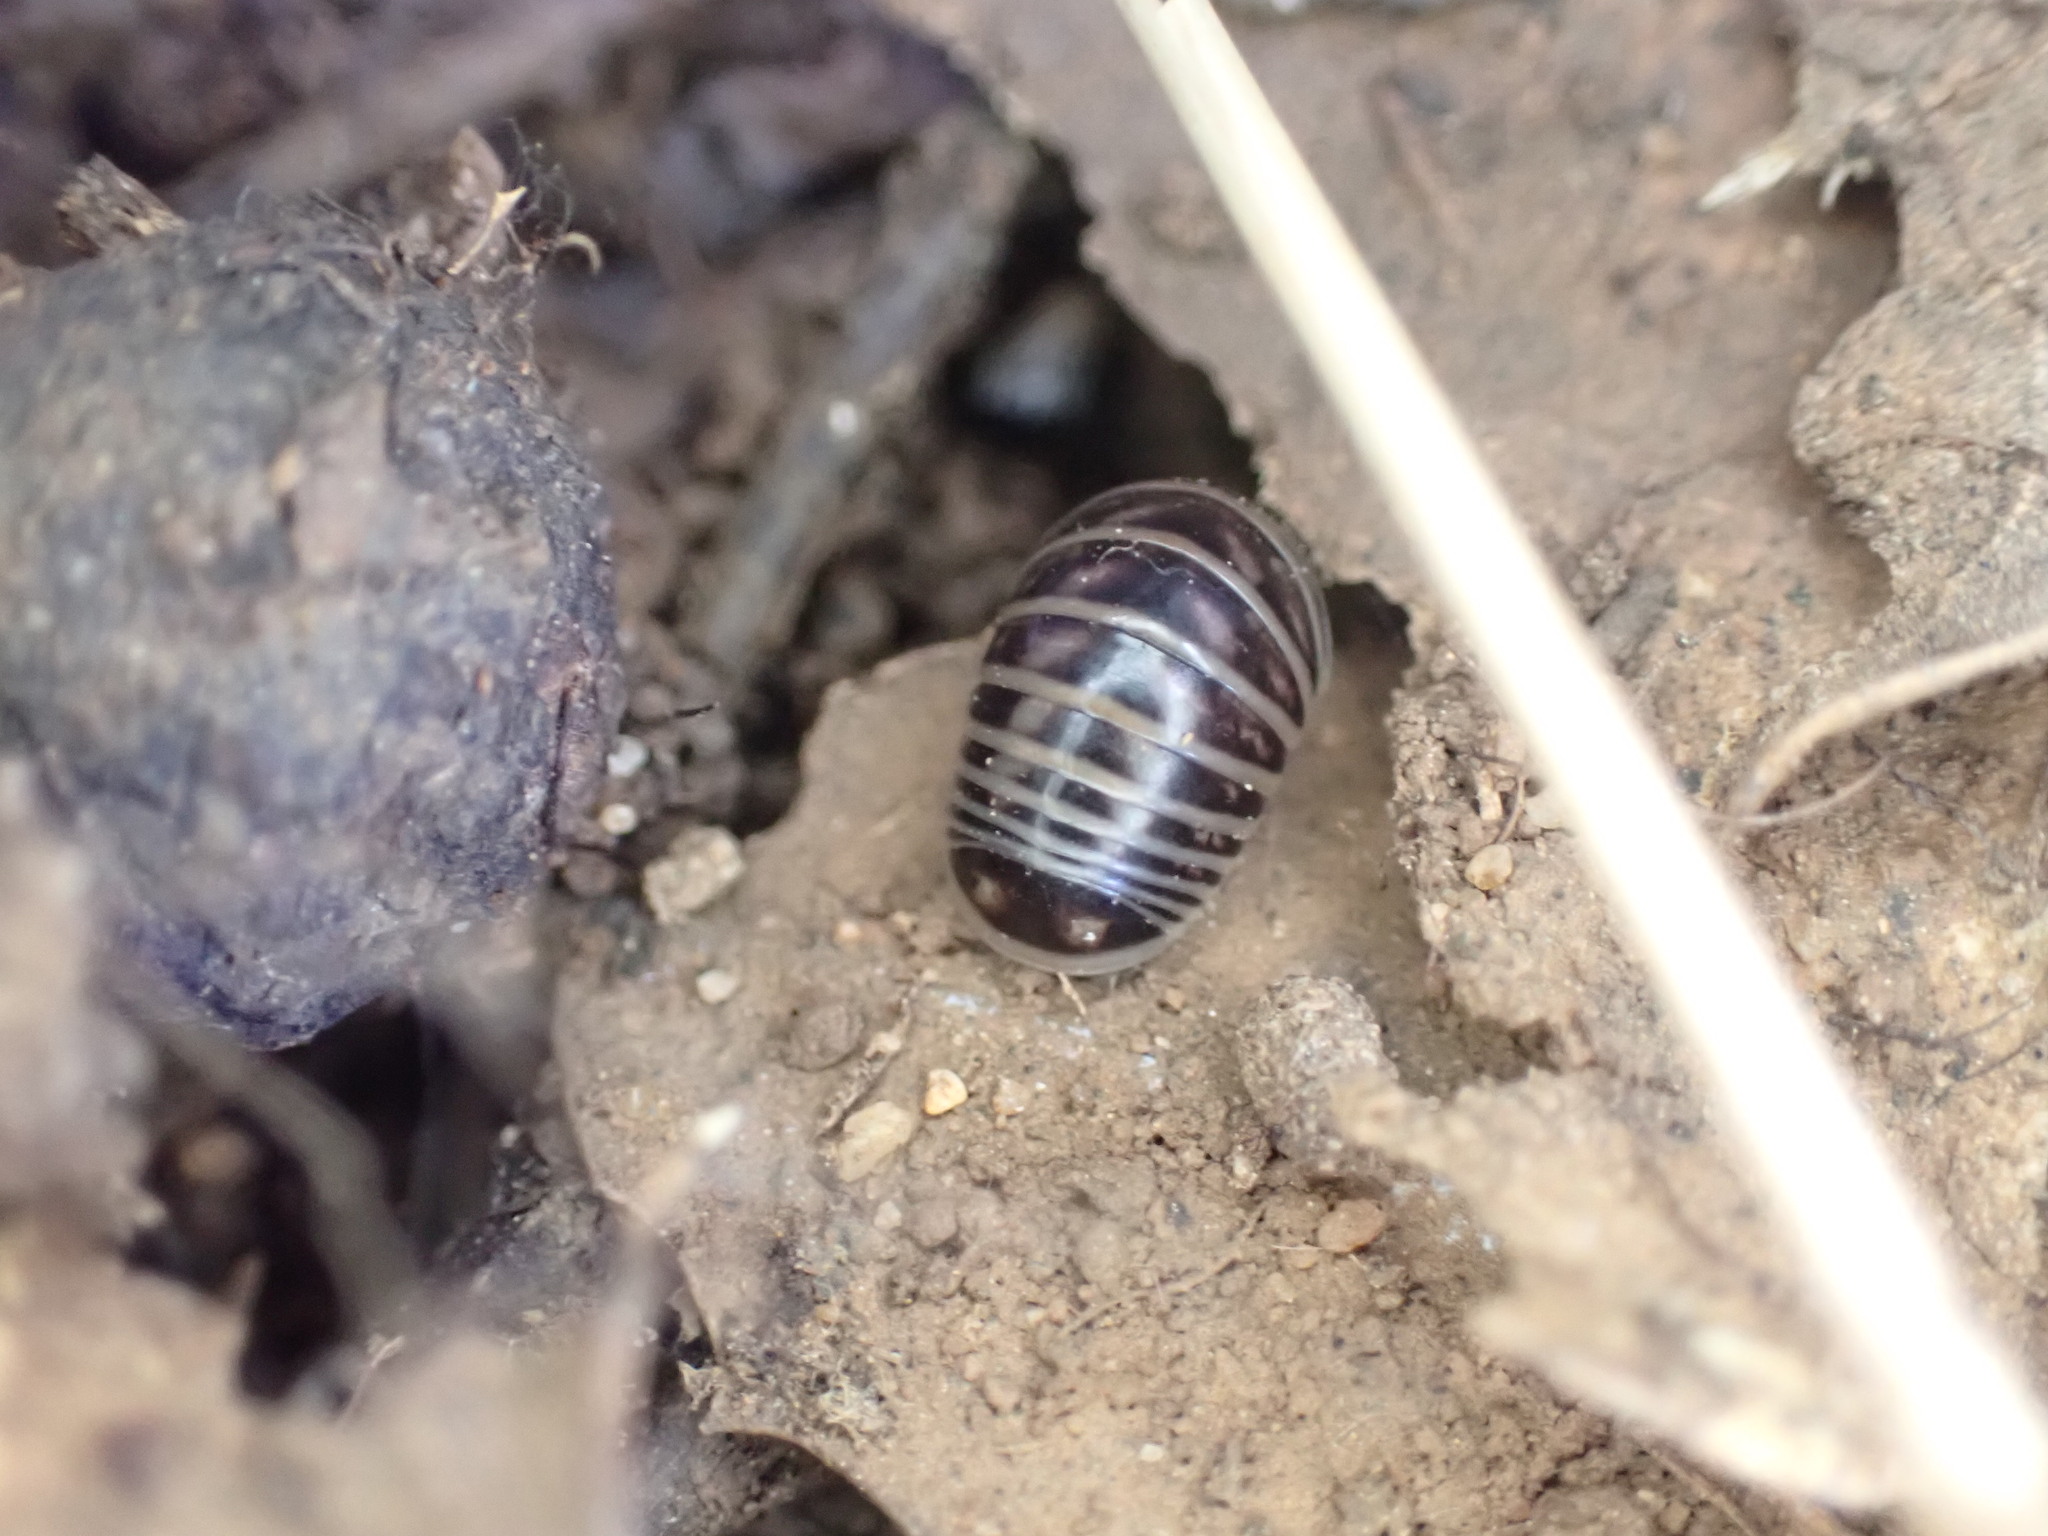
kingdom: Animalia
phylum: Arthropoda
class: Diplopoda
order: Glomerida
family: Glomeridae
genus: Glomeris
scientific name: Glomeris marginata
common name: Bordered pill millipede
